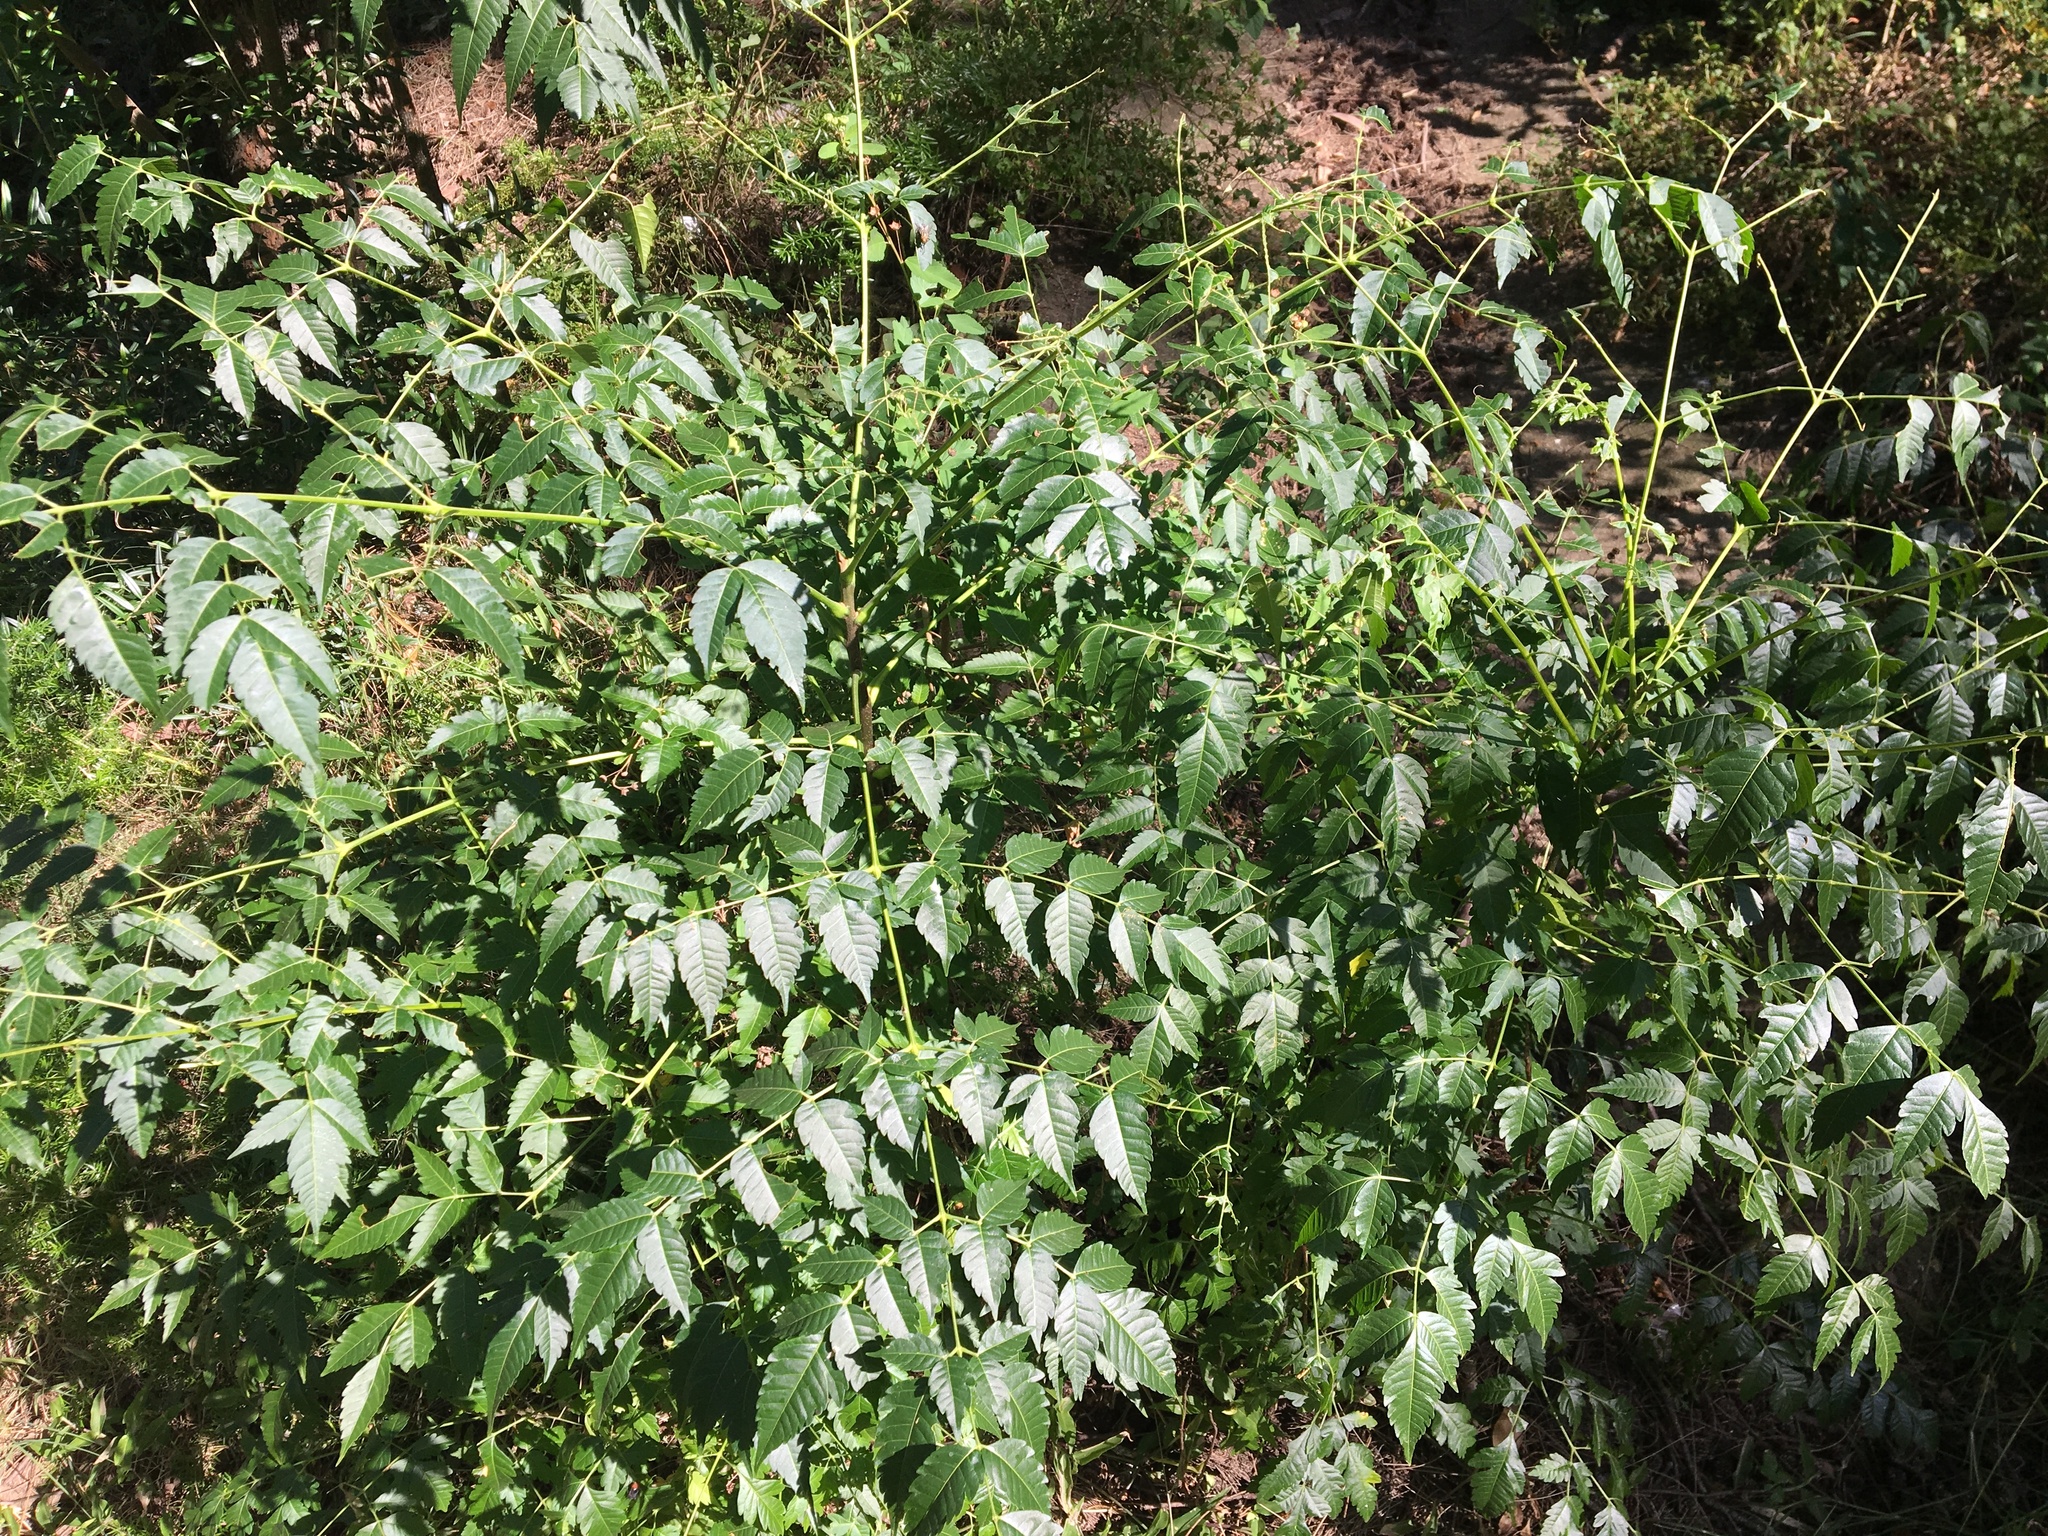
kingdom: Plantae
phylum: Tracheophyta
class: Magnoliopsida
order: Sapindales
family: Meliaceae
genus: Melia
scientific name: Melia azedarach
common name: Chinaberrytree
